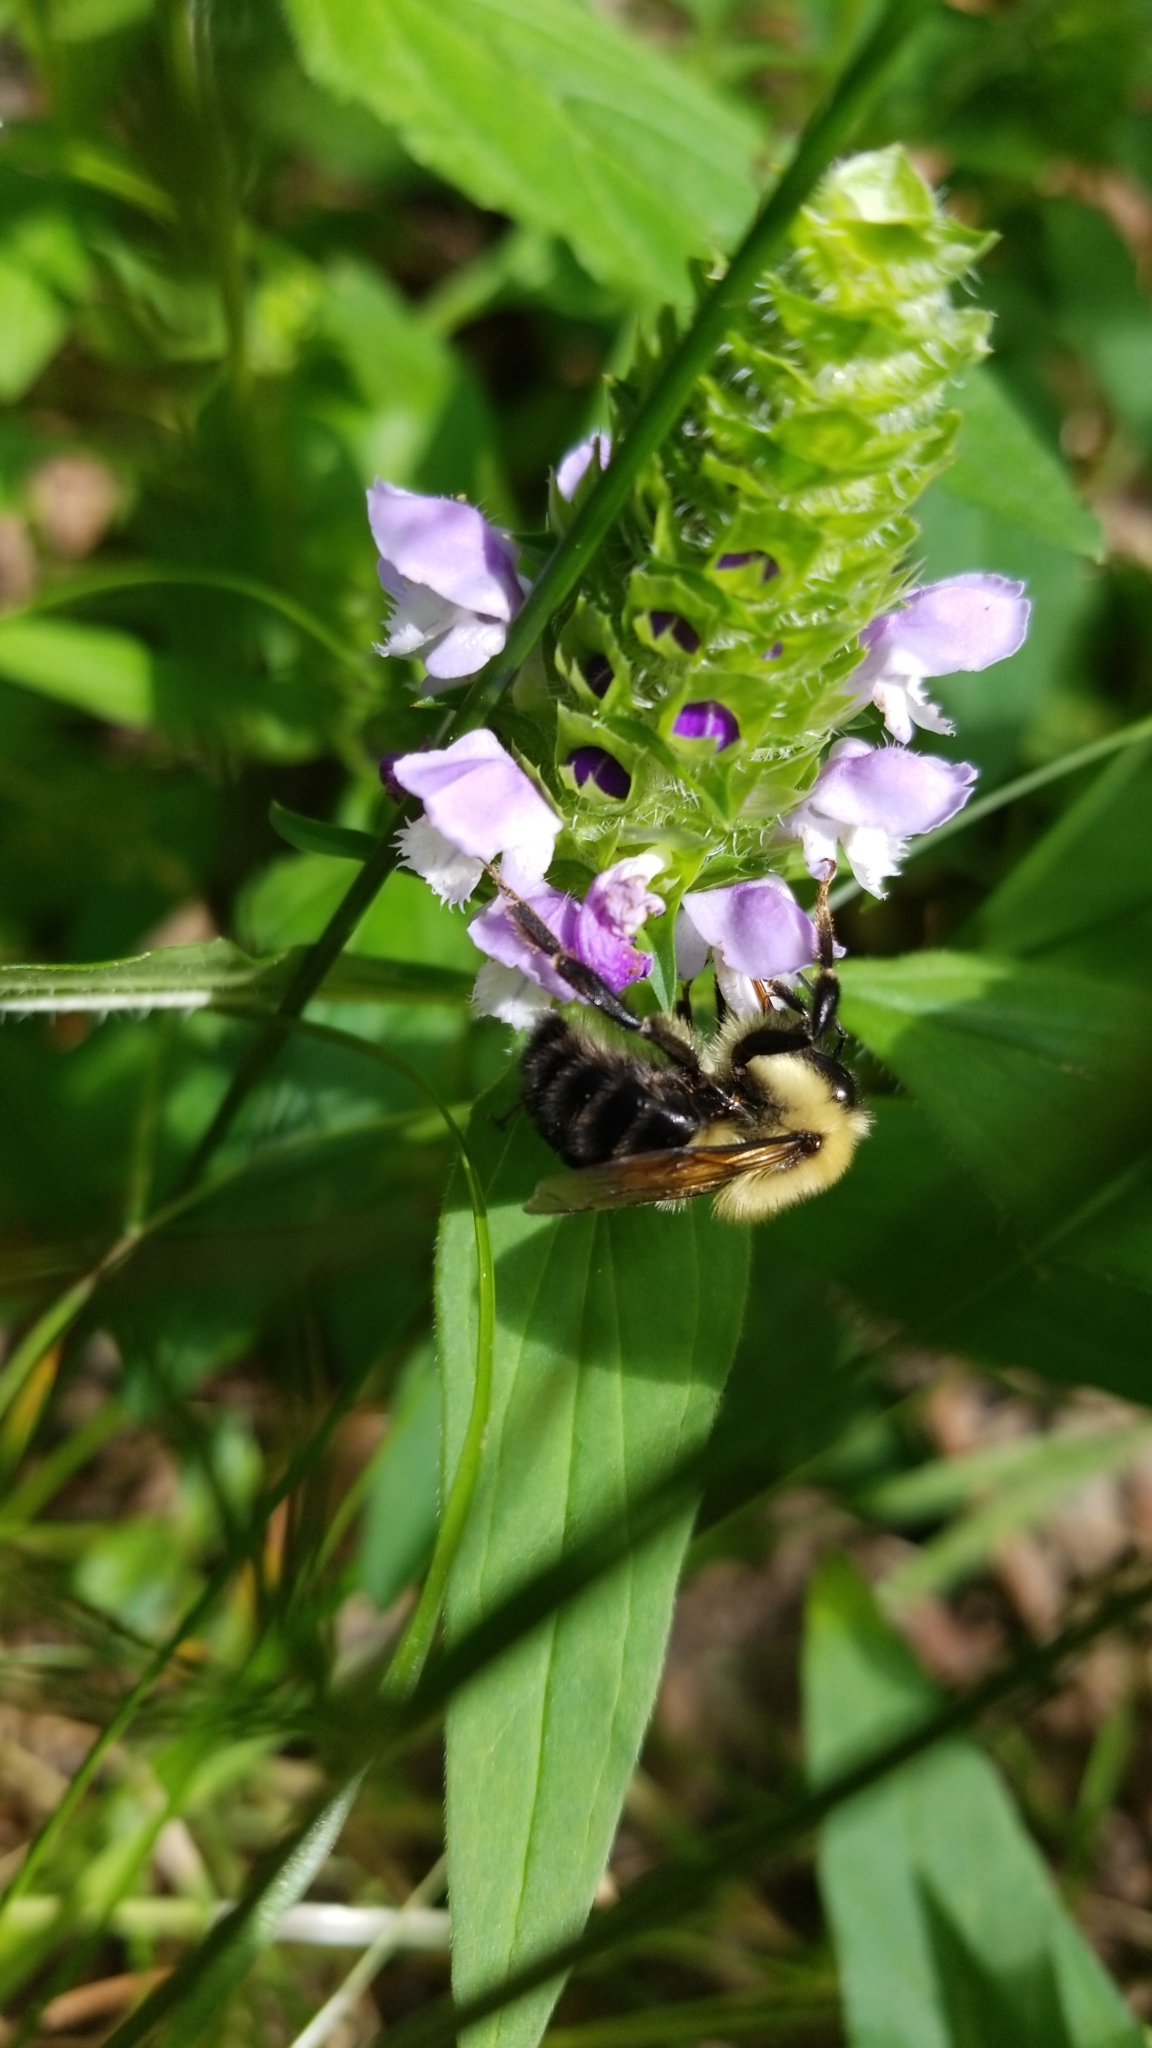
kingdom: Plantae
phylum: Tracheophyta
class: Magnoliopsida
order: Lamiales
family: Lamiaceae
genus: Prunella
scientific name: Prunella vulgaris
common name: Heal-all
